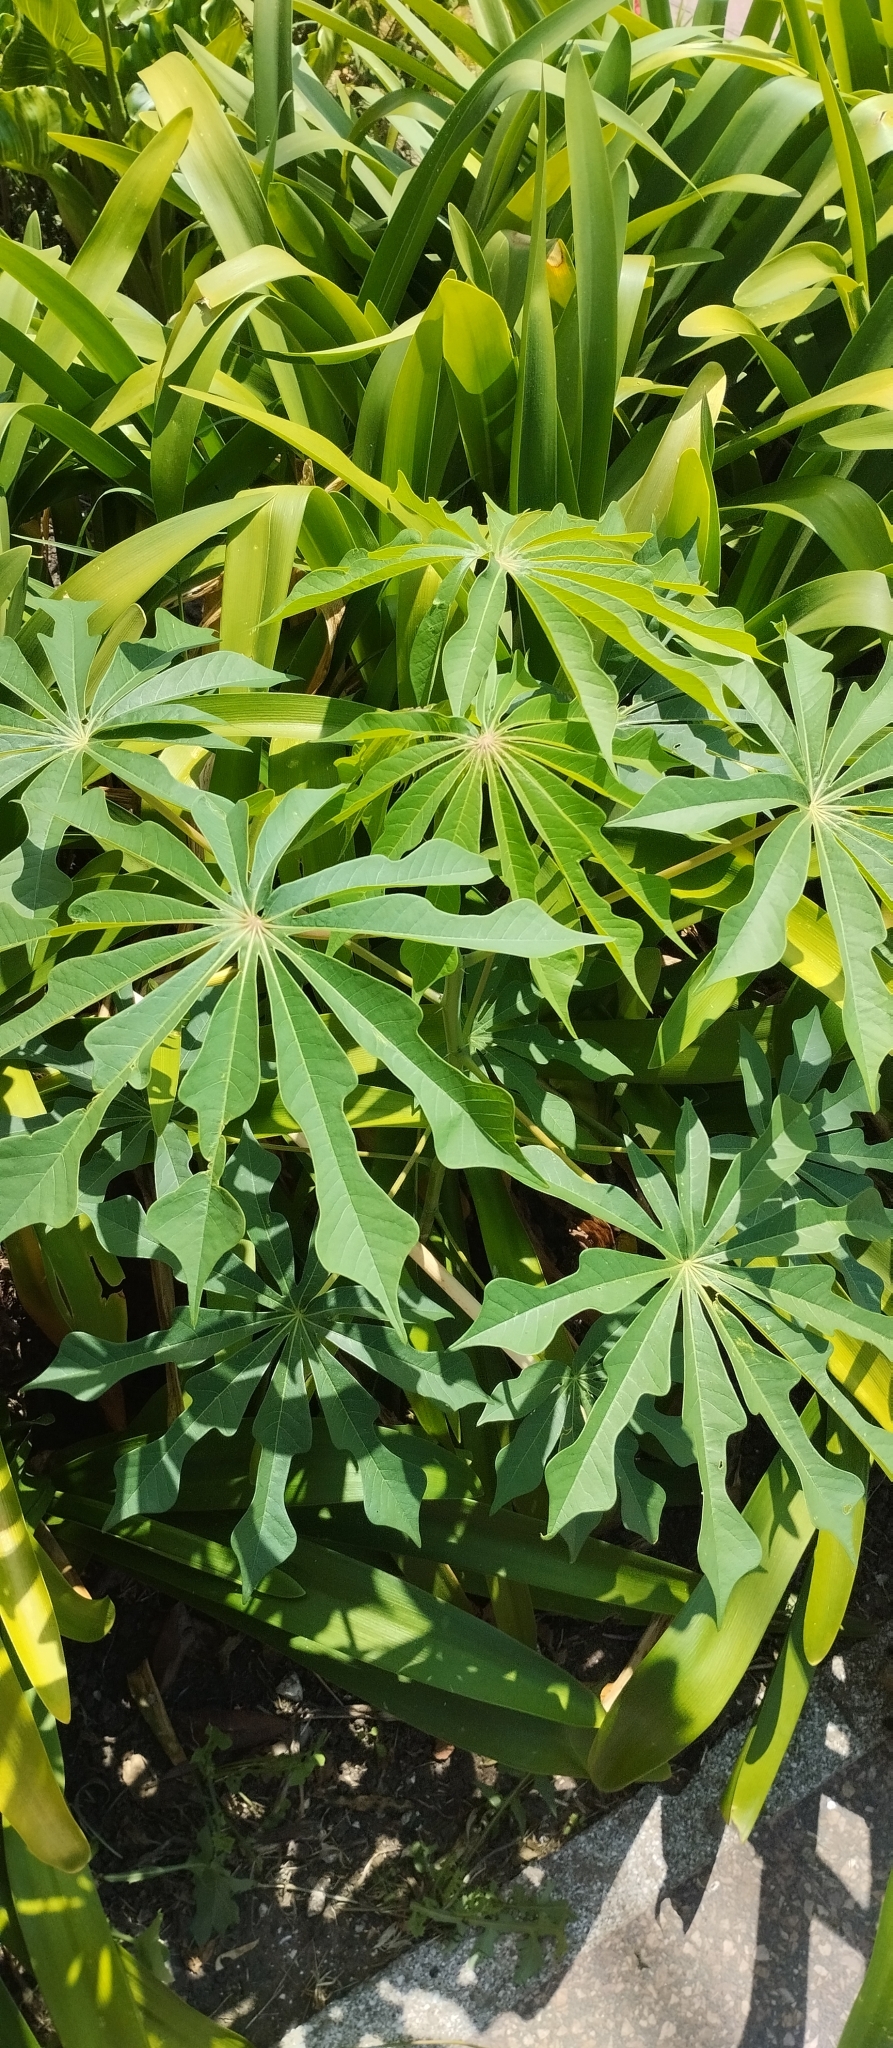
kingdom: Plantae
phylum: Tracheophyta
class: Magnoliopsida
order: Malpighiales
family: Euphorbiaceae
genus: Manihot
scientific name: Manihot grahamii
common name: Graham's manihot
